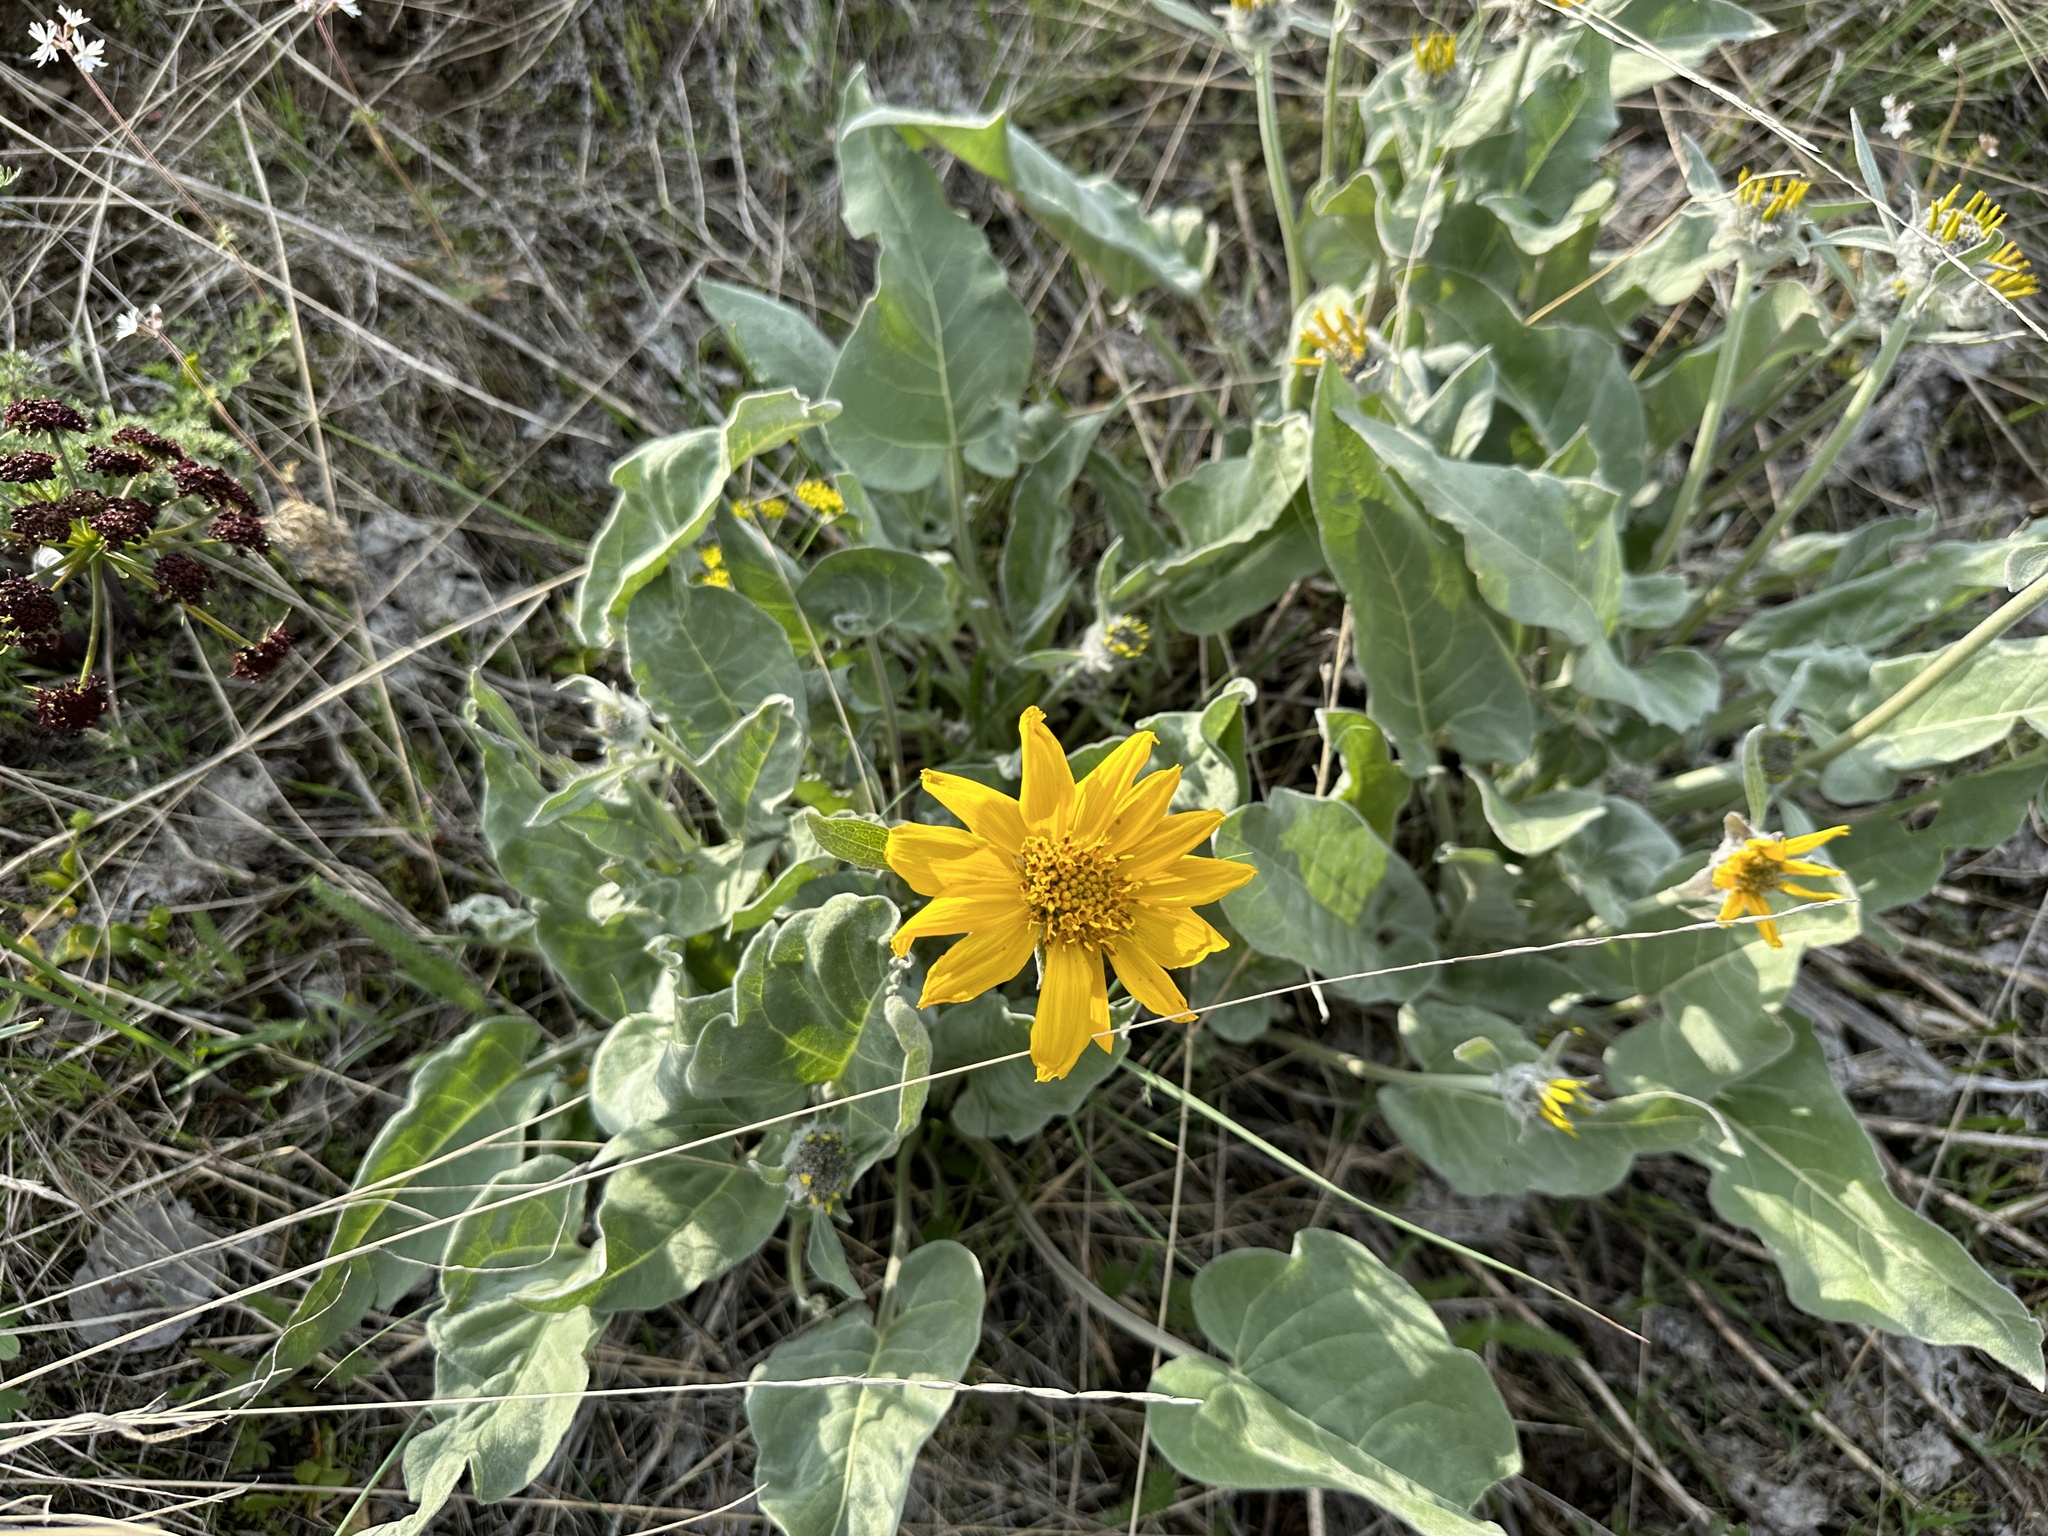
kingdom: Plantae
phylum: Tracheophyta
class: Magnoliopsida
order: Asterales
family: Asteraceae
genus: Wyethia
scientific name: Wyethia sagittata
